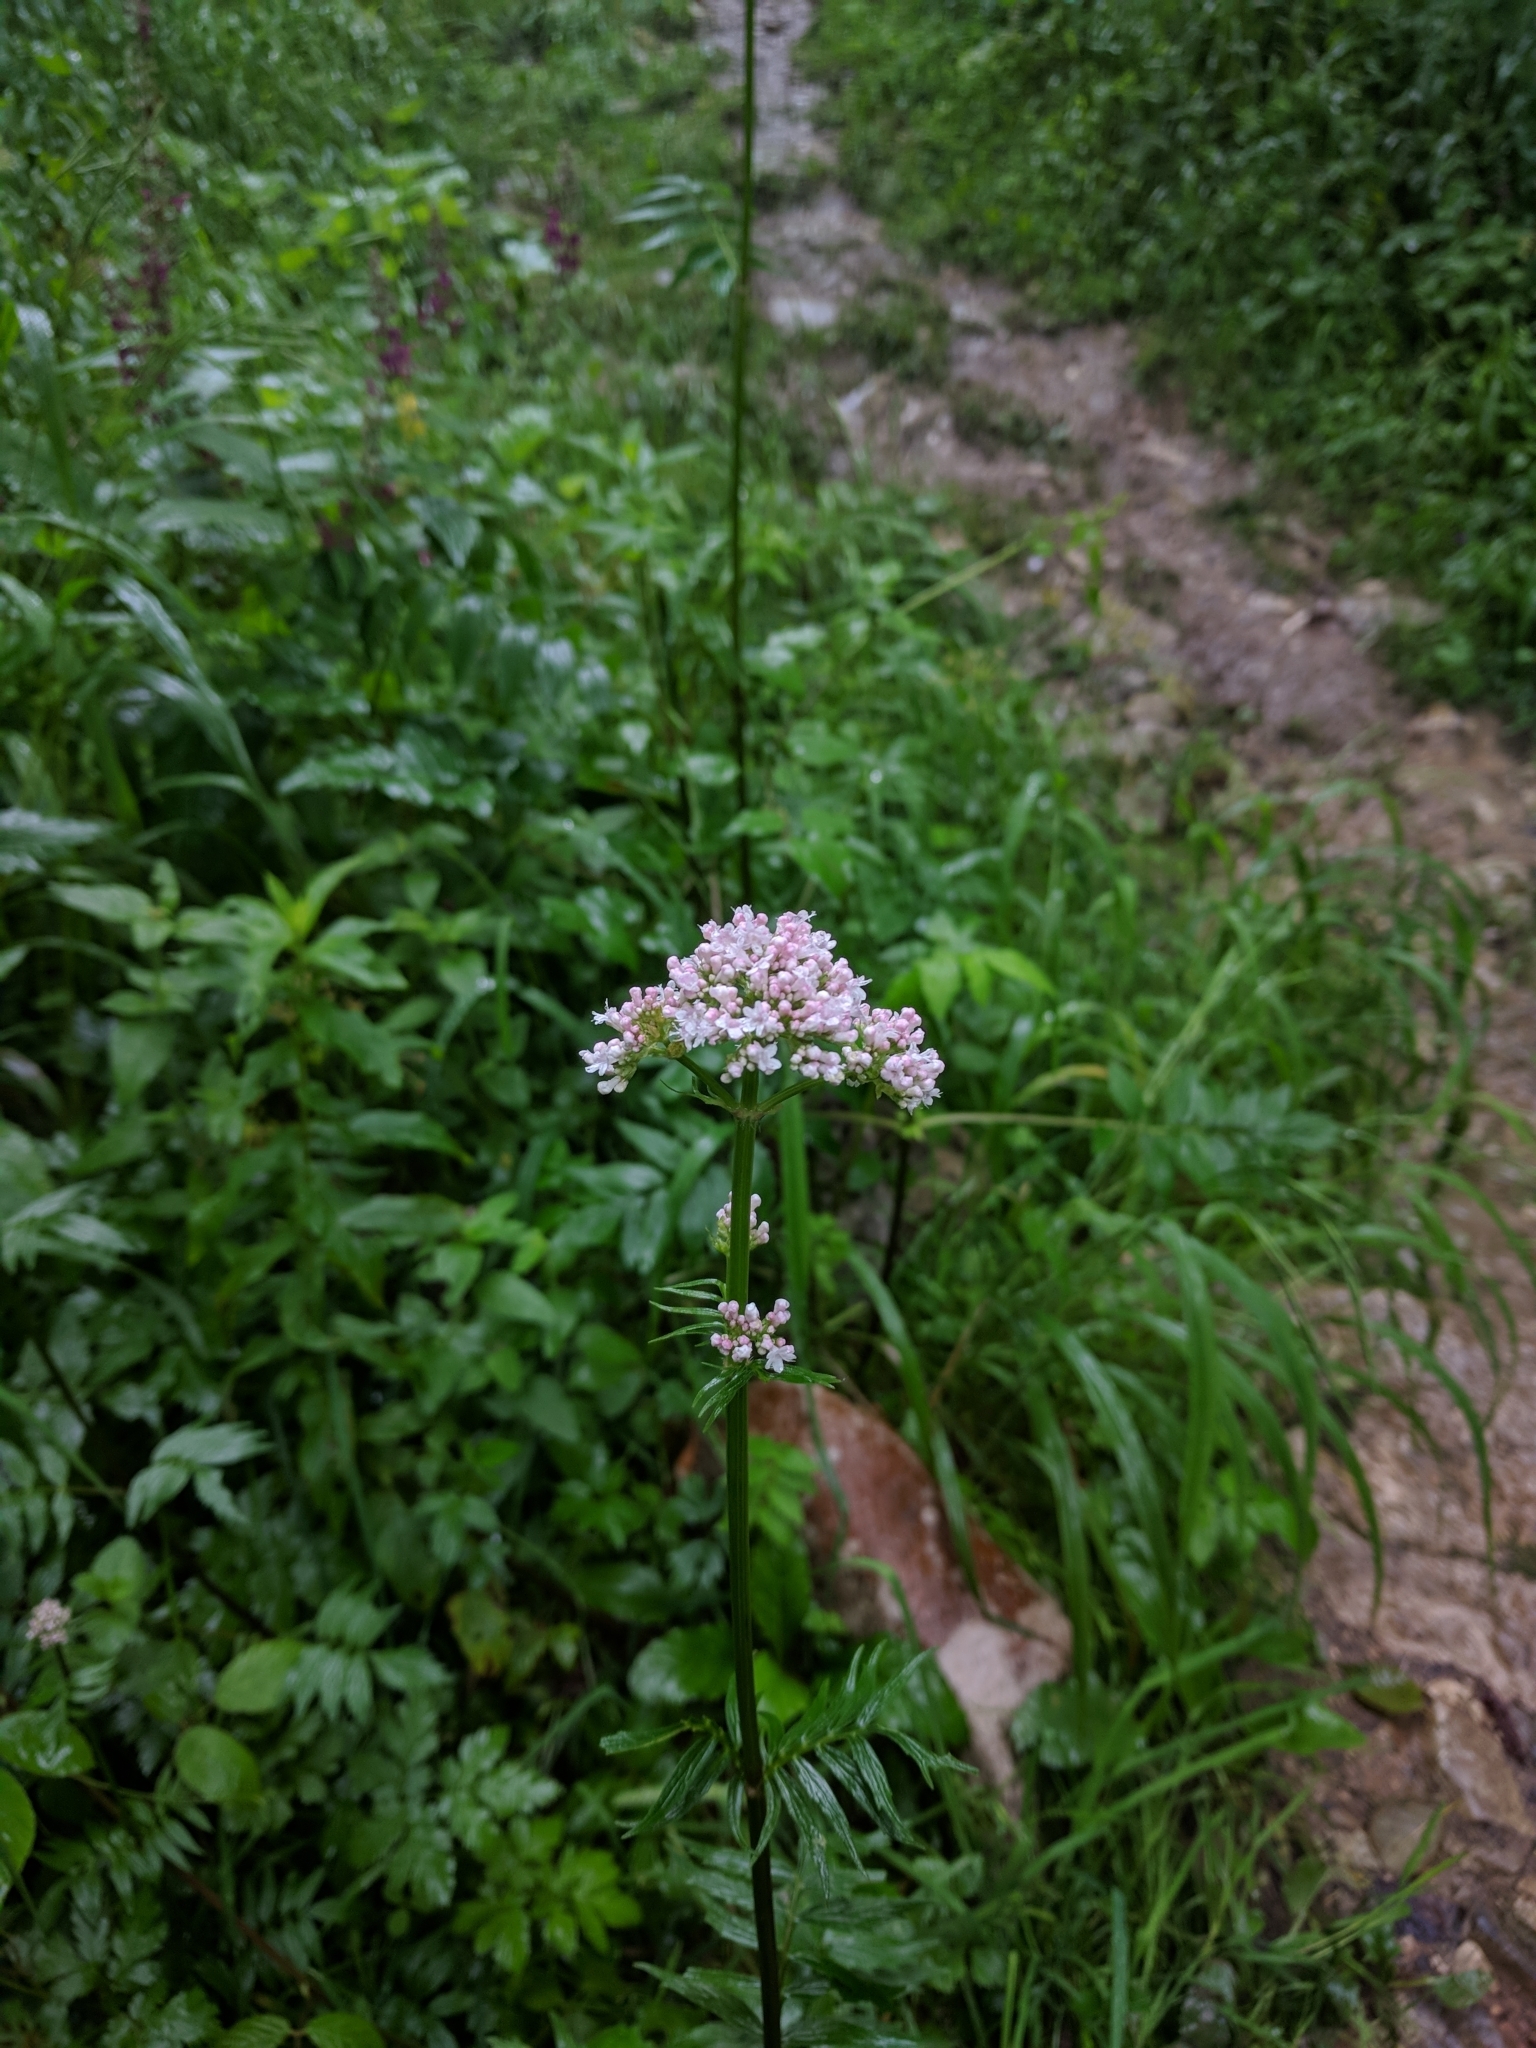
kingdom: Plantae
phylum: Tracheophyta
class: Magnoliopsida
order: Dipsacales
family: Caprifoliaceae
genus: Valeriana
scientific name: Valeriana officinalis
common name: Common valerian
